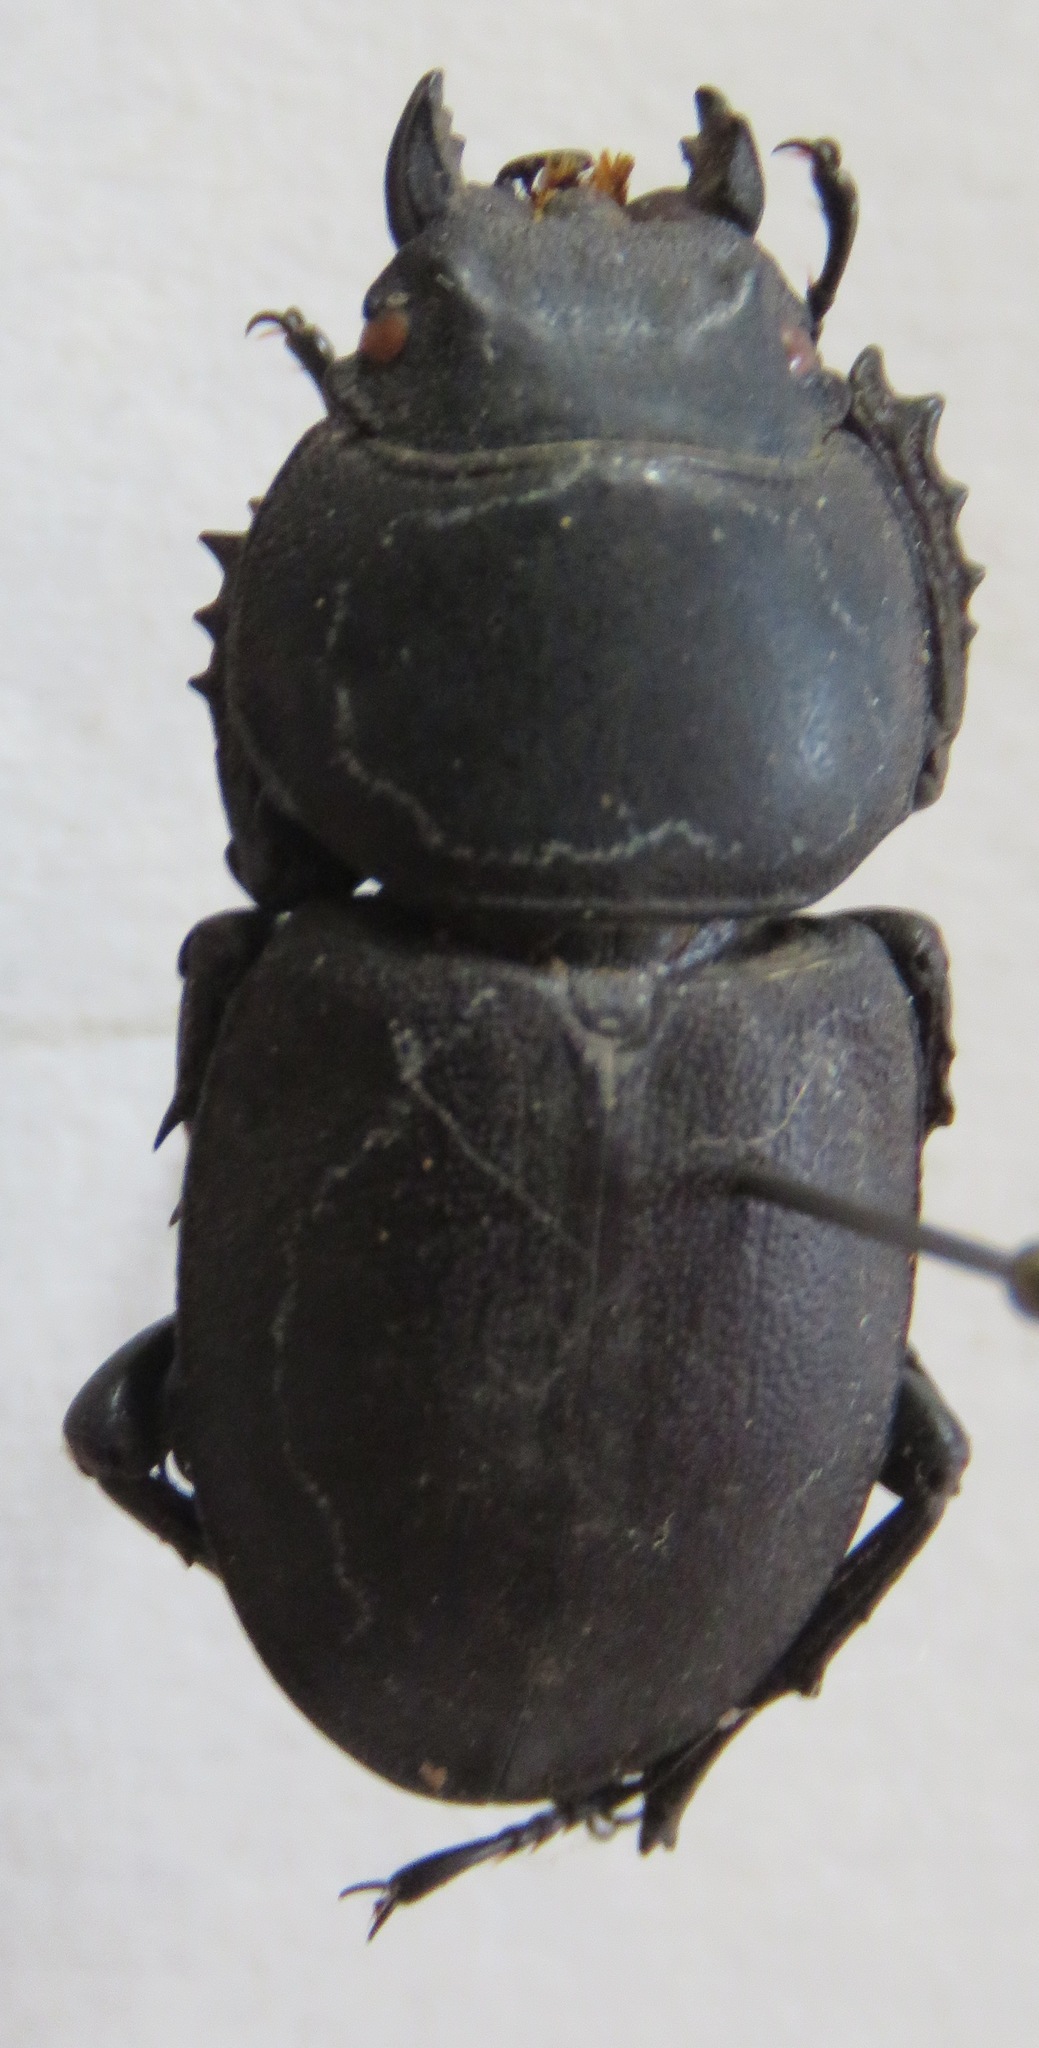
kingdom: Animalia
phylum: Arthropoda
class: Insecta
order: Coleoptera
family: Lucanidae
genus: Apterodorcus
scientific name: Apterodorcus bacchus
